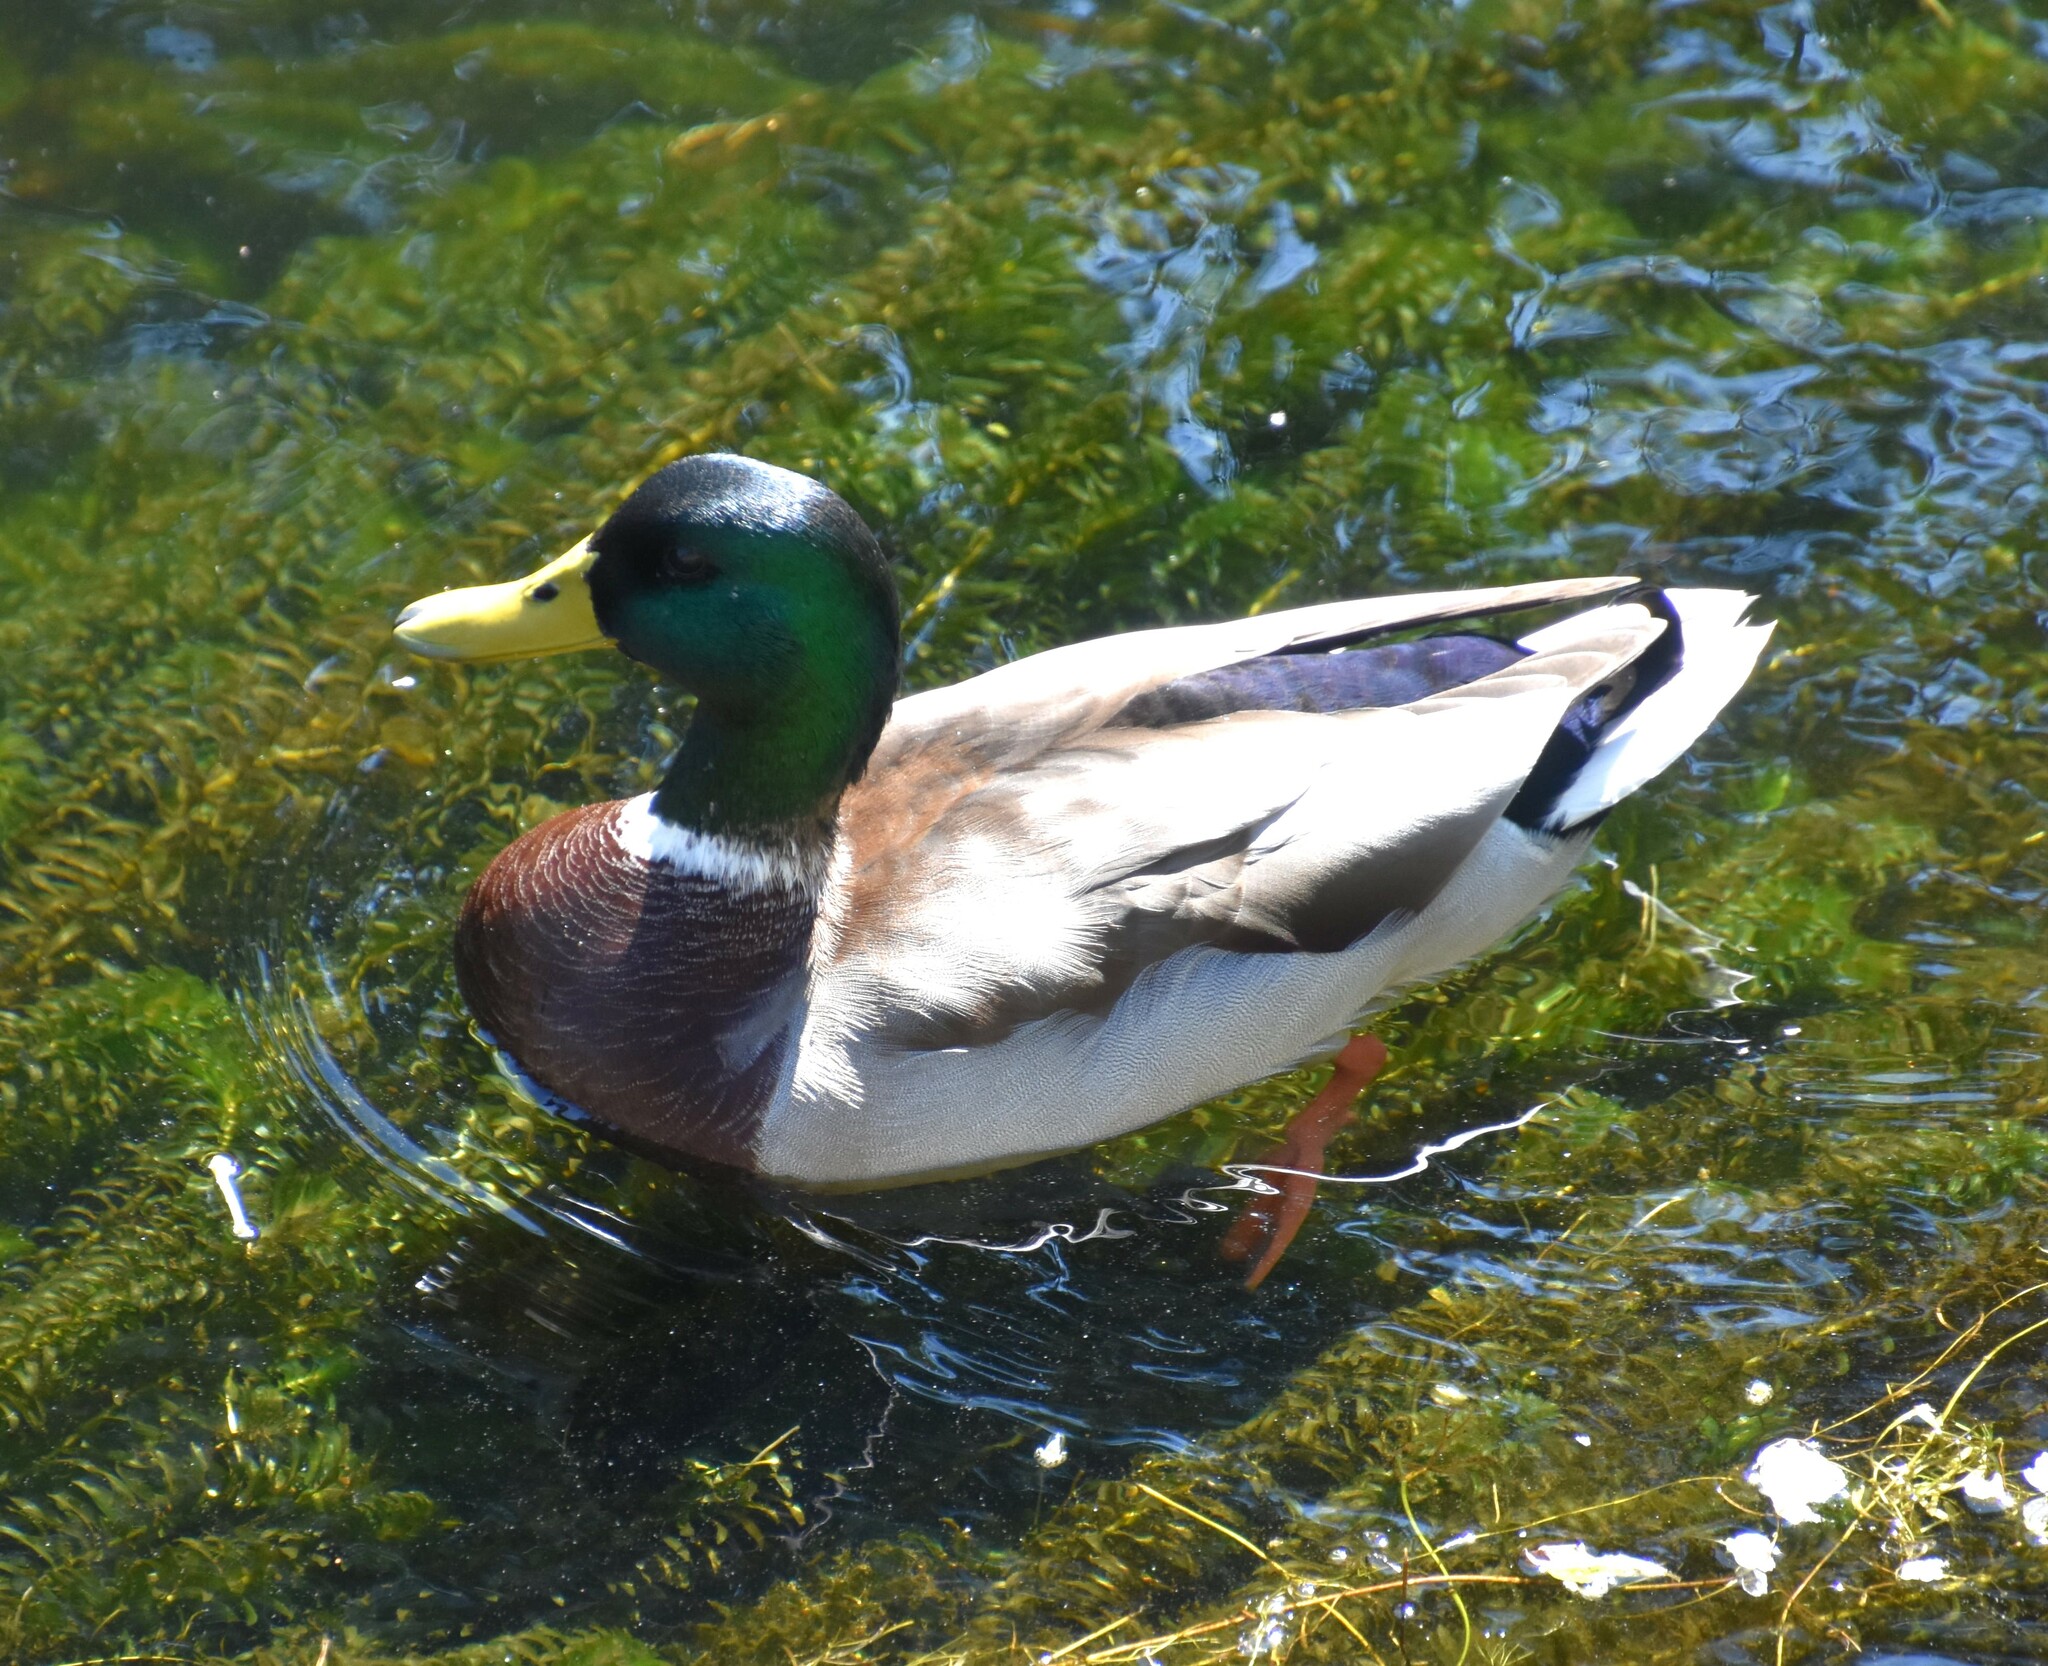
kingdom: Animalia
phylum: Chordata
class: Aves
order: Anseriformes
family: Anatidae
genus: Anas
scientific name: Anas platyrhynchos
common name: Mallard
